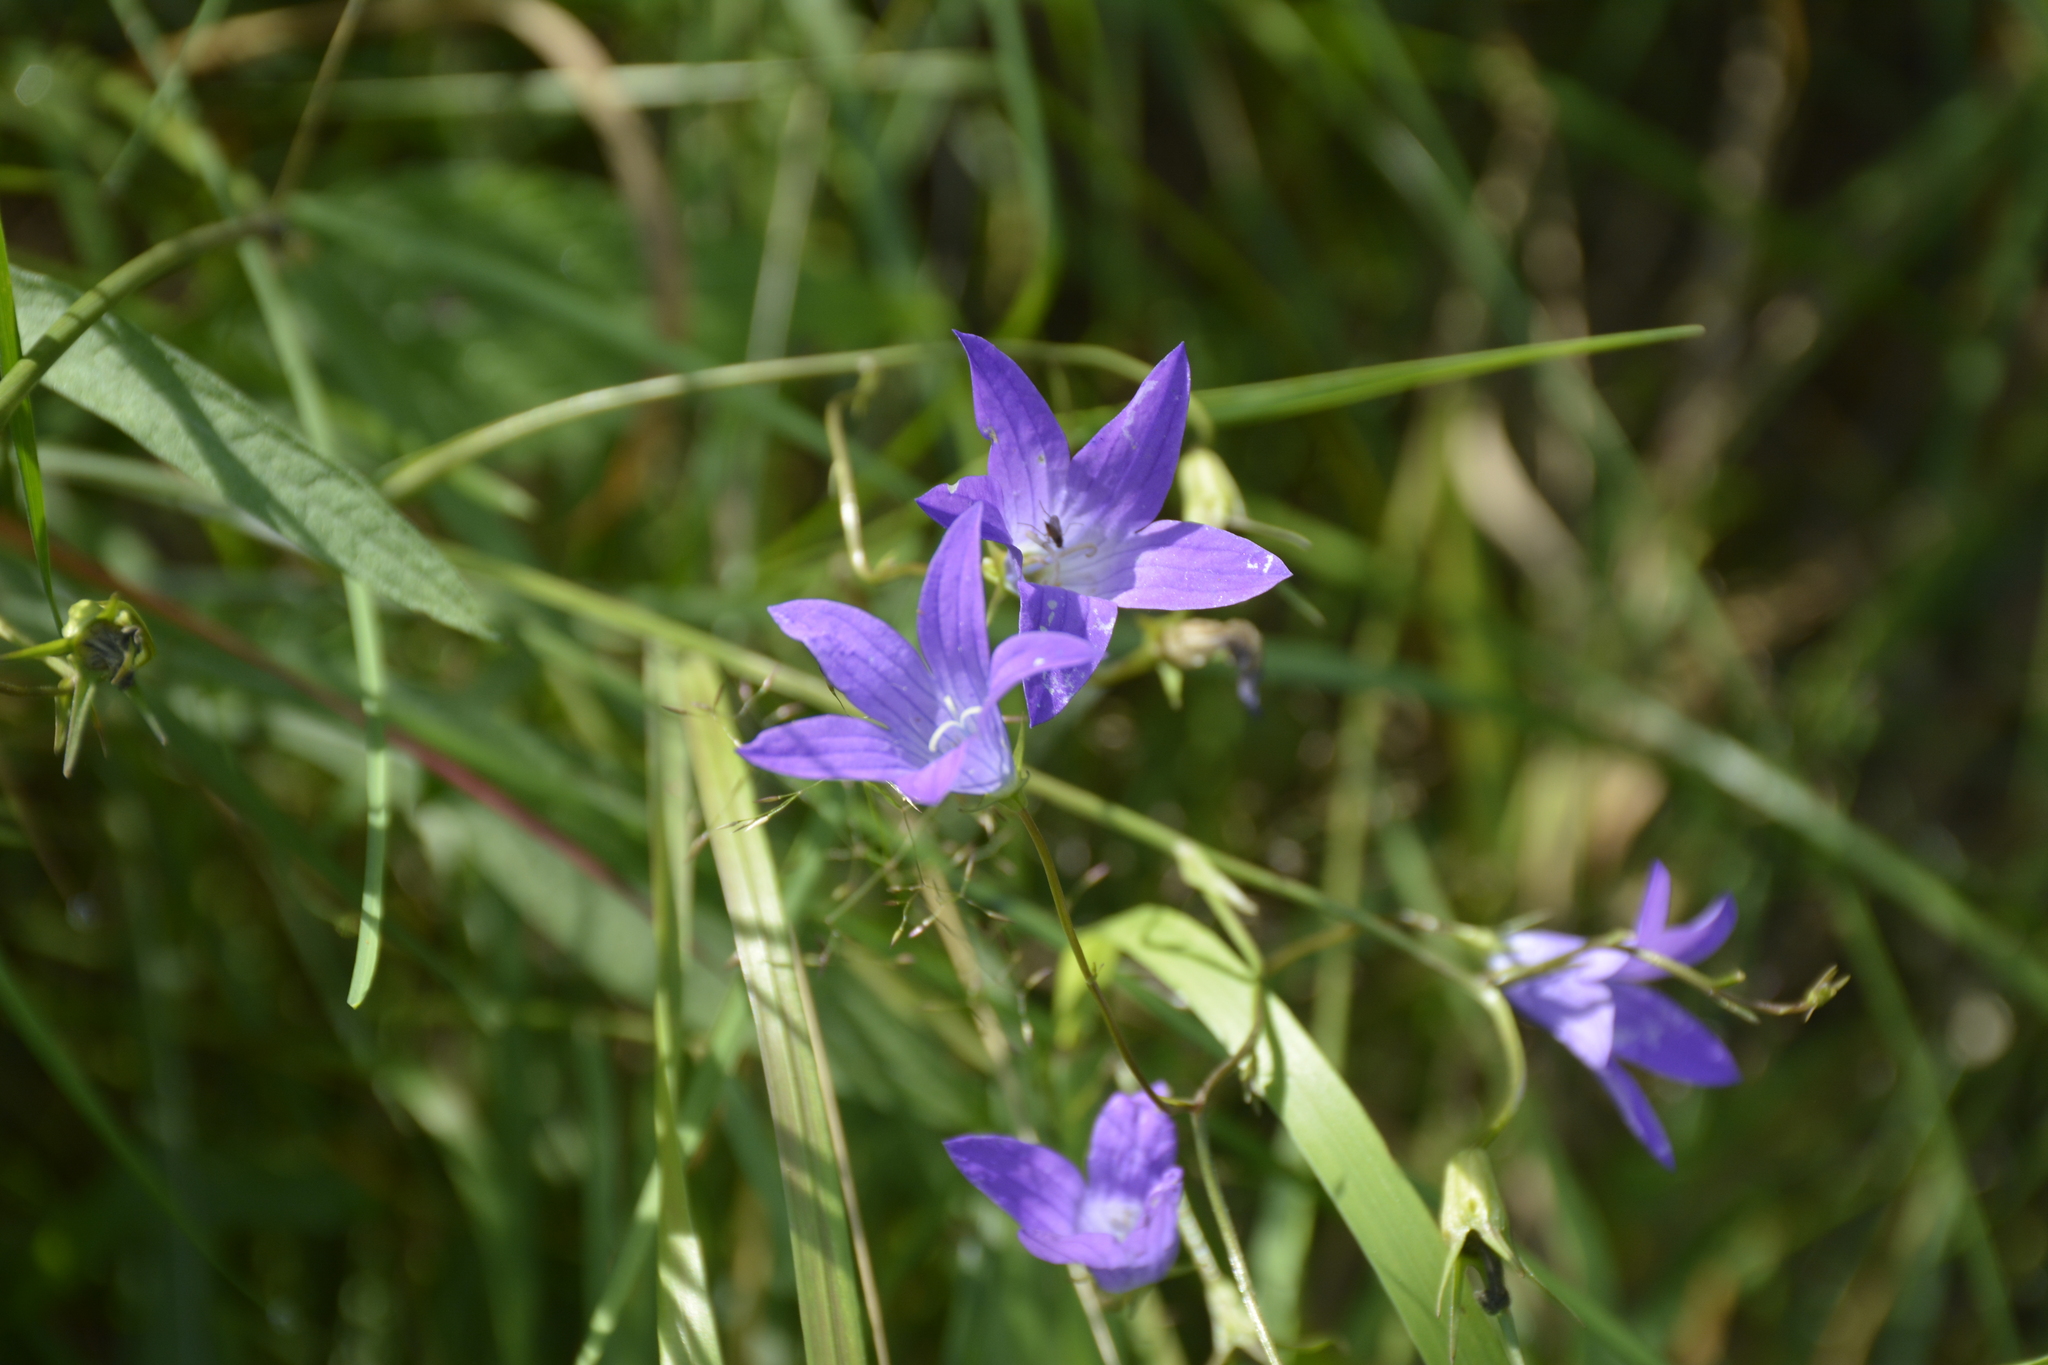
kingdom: Plantae
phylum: Tracheophyta
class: Magnoliopsida
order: Asterales
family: Campanulaceae
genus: Campanula
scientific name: Campanula patula
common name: Spreading bellflower
